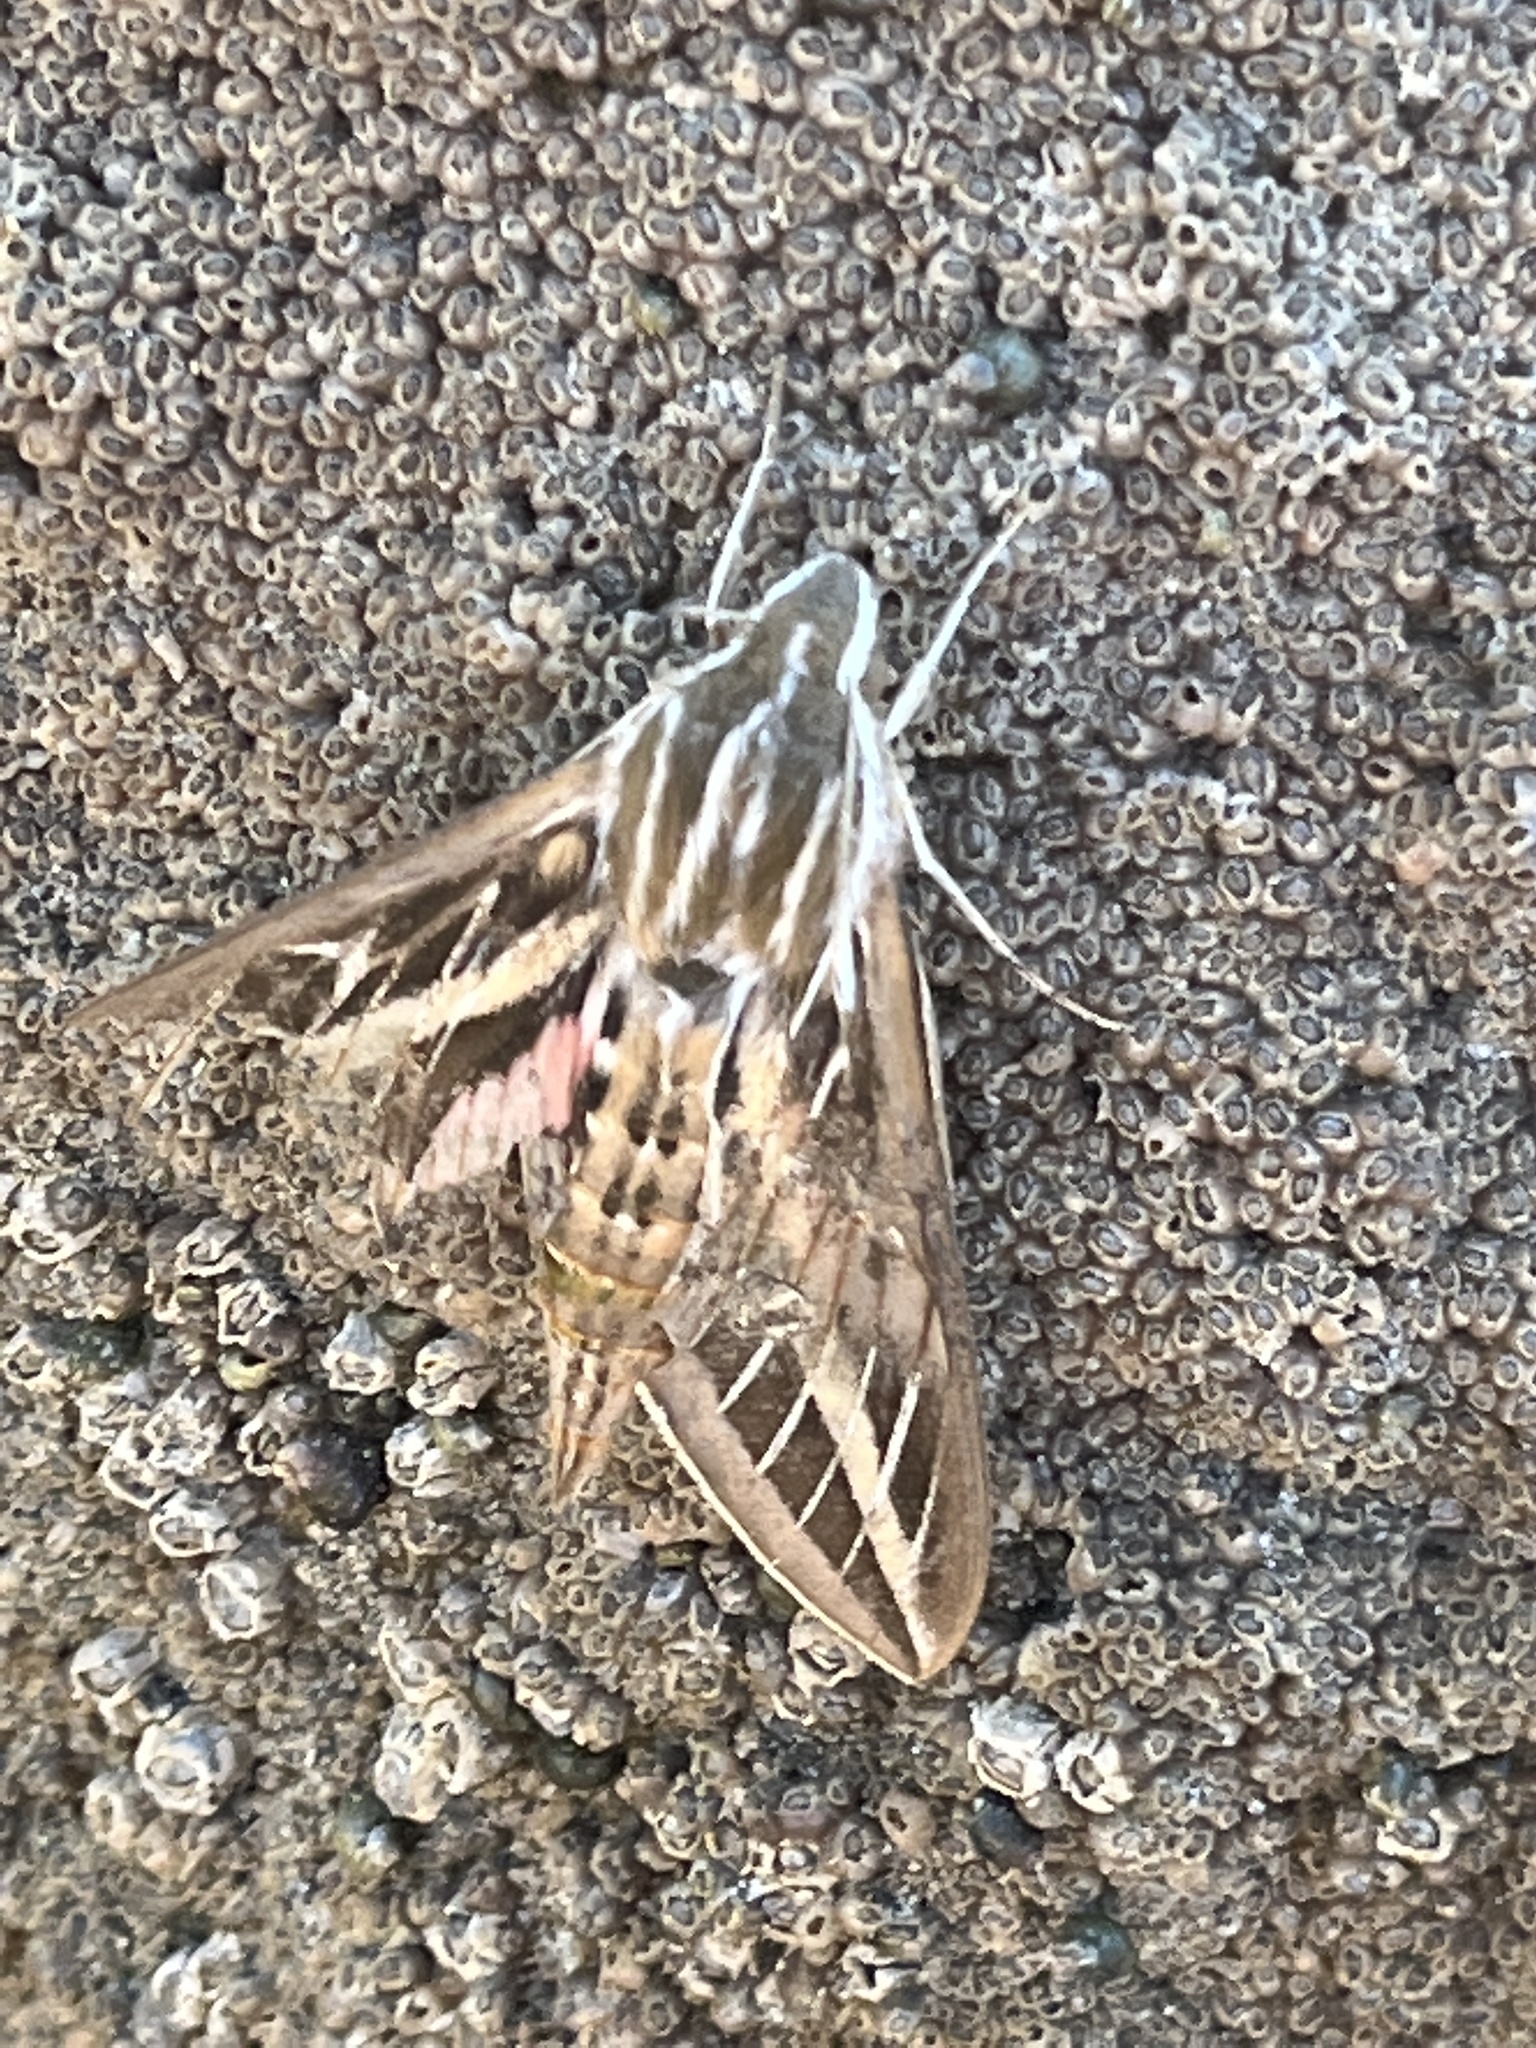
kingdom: Animalia
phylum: Arthropoda
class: Insecta
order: Lepidoptera
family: Sphingidae
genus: Hyles
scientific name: Hyles lineata
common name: White-lined sphinx
